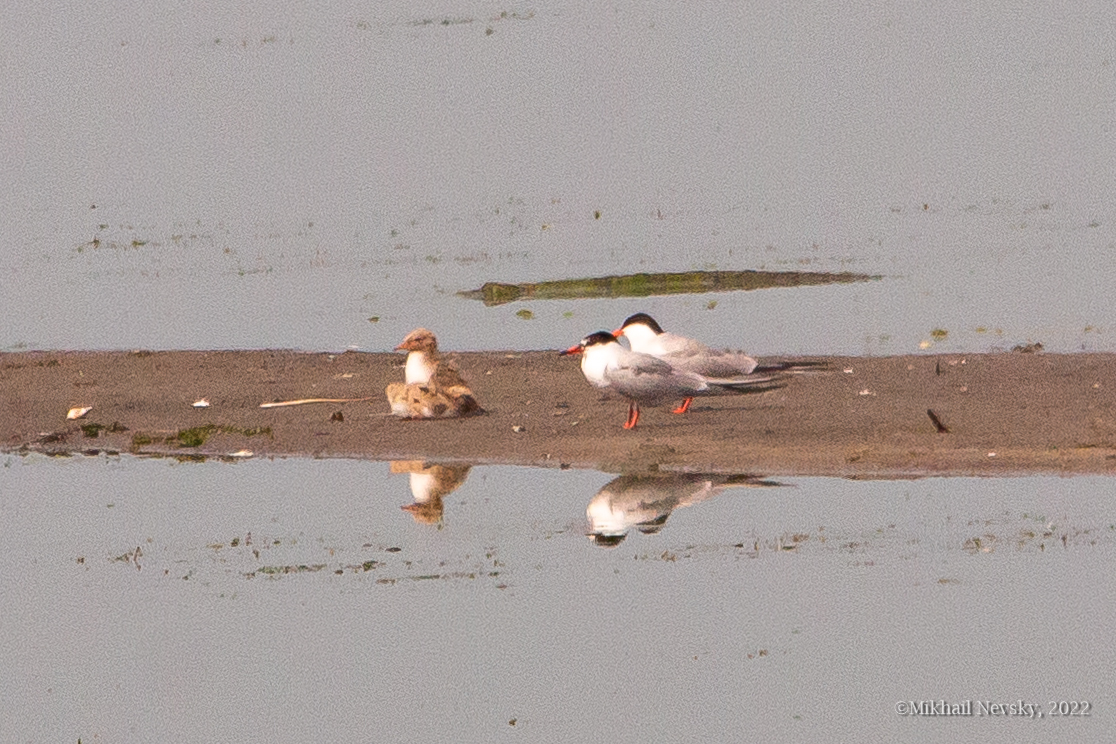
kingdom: Animalia
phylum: Chordata
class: Aves
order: Charadriiformes
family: Laridae
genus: Sterna
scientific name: Sterna hirundo
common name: Common tern
